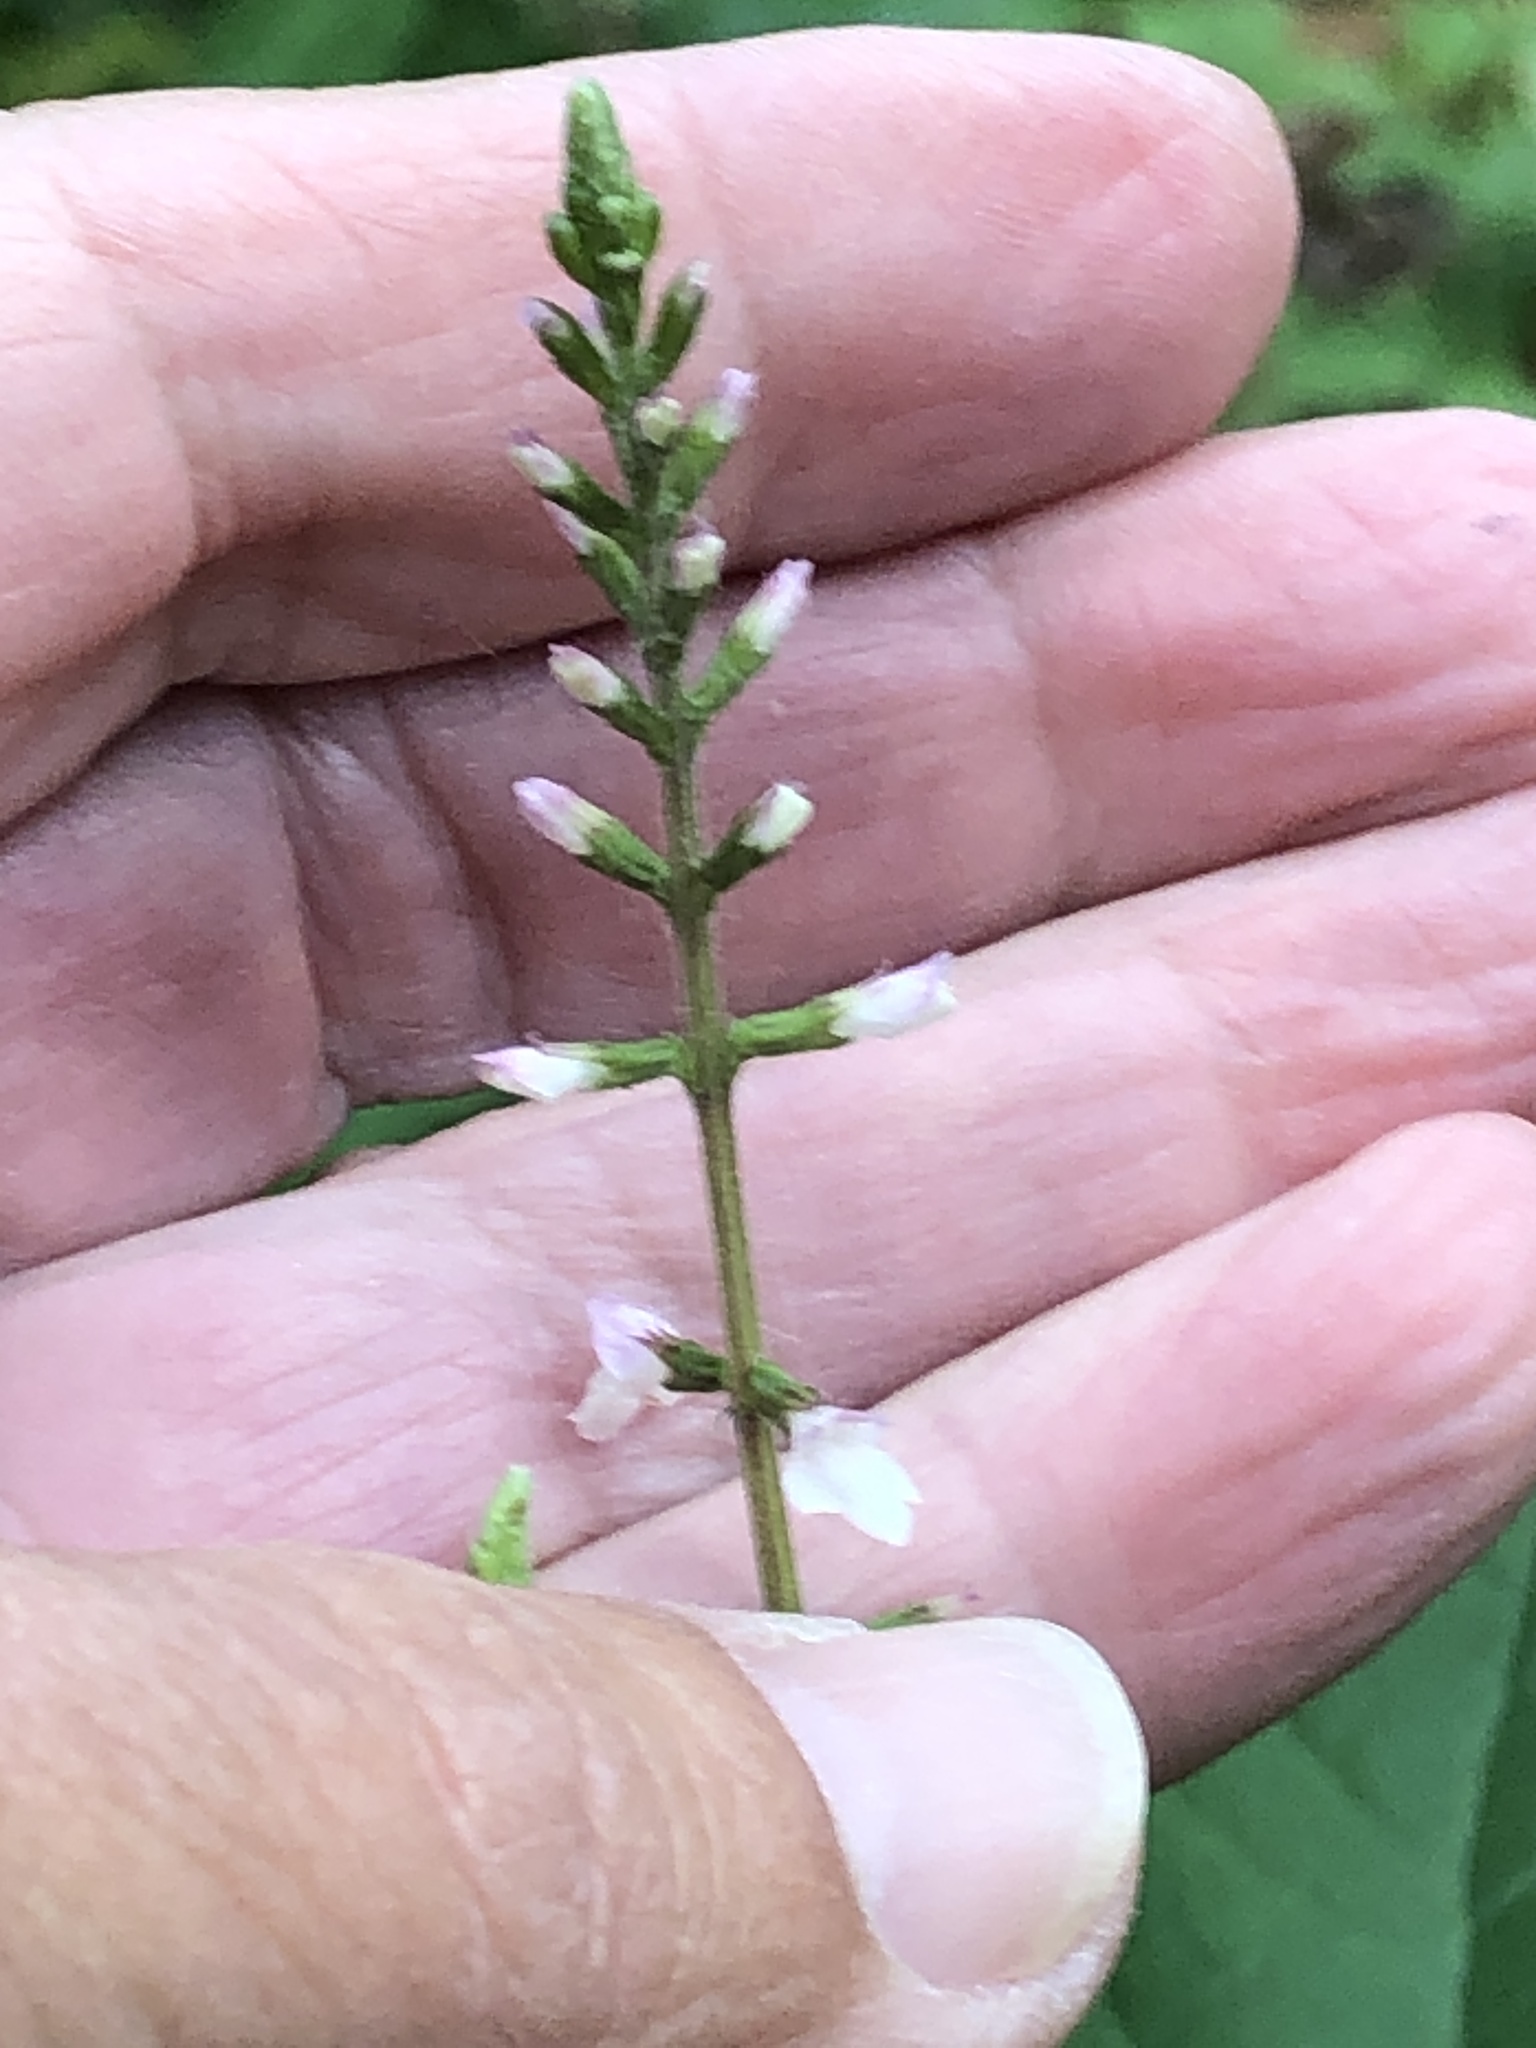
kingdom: Plantae
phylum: Tracheophyta
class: Magnoliopsida
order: Lamiales
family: Phrymaceae
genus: Phryma
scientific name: Phryma leptostachya
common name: American lopseed
